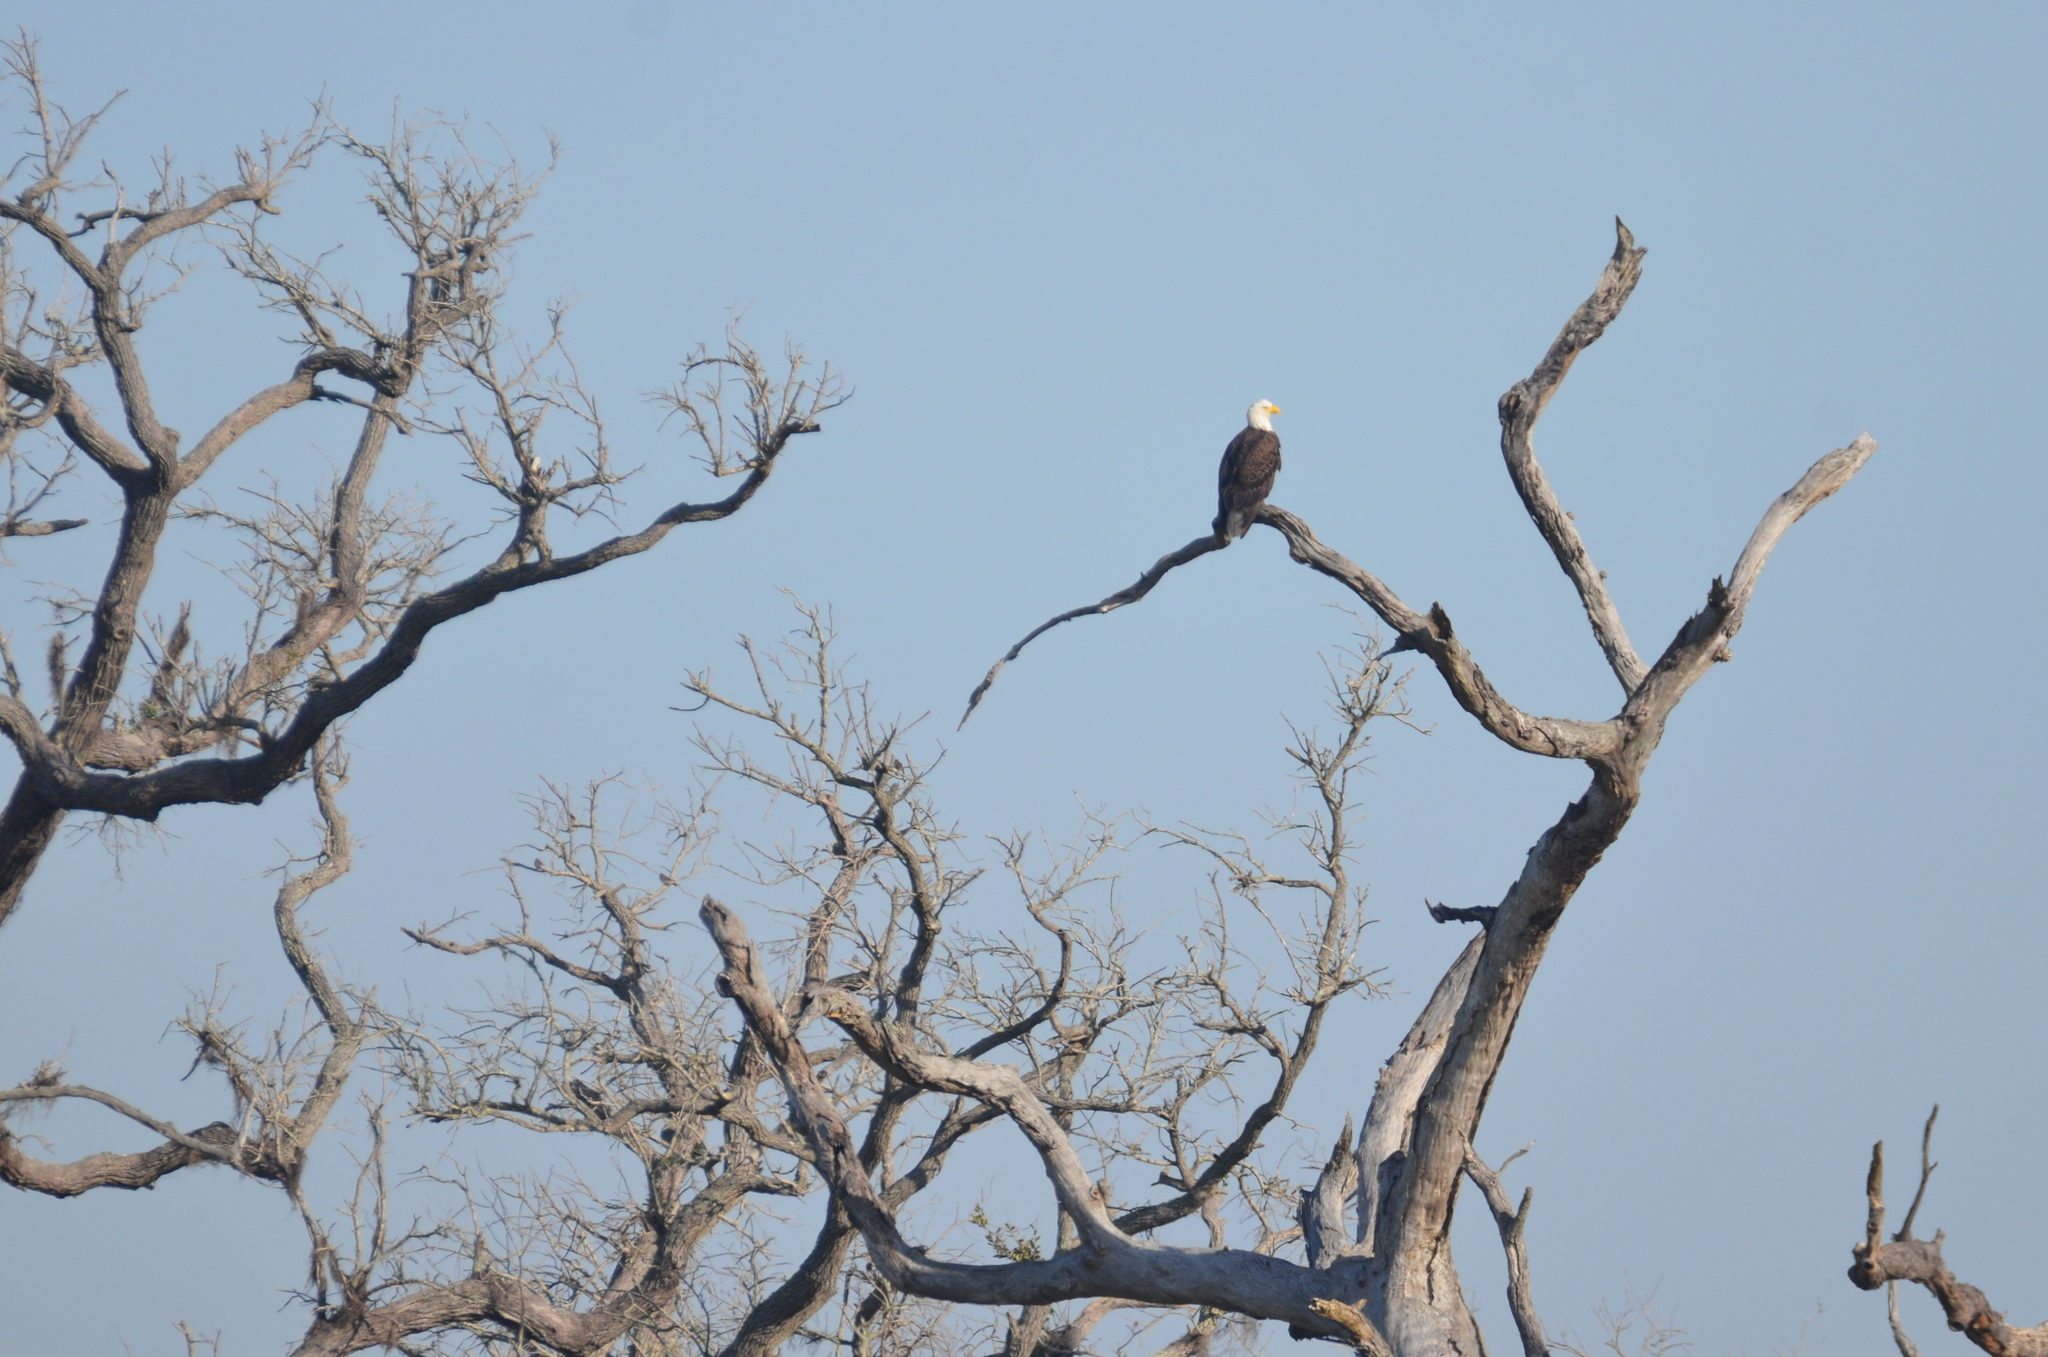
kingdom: Animalia
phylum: Chordata
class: Aves
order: Accipitriformes
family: Accipitridae
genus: Haliaeetus
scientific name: Haliaeetus leucocephalus
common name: Bald eagle
